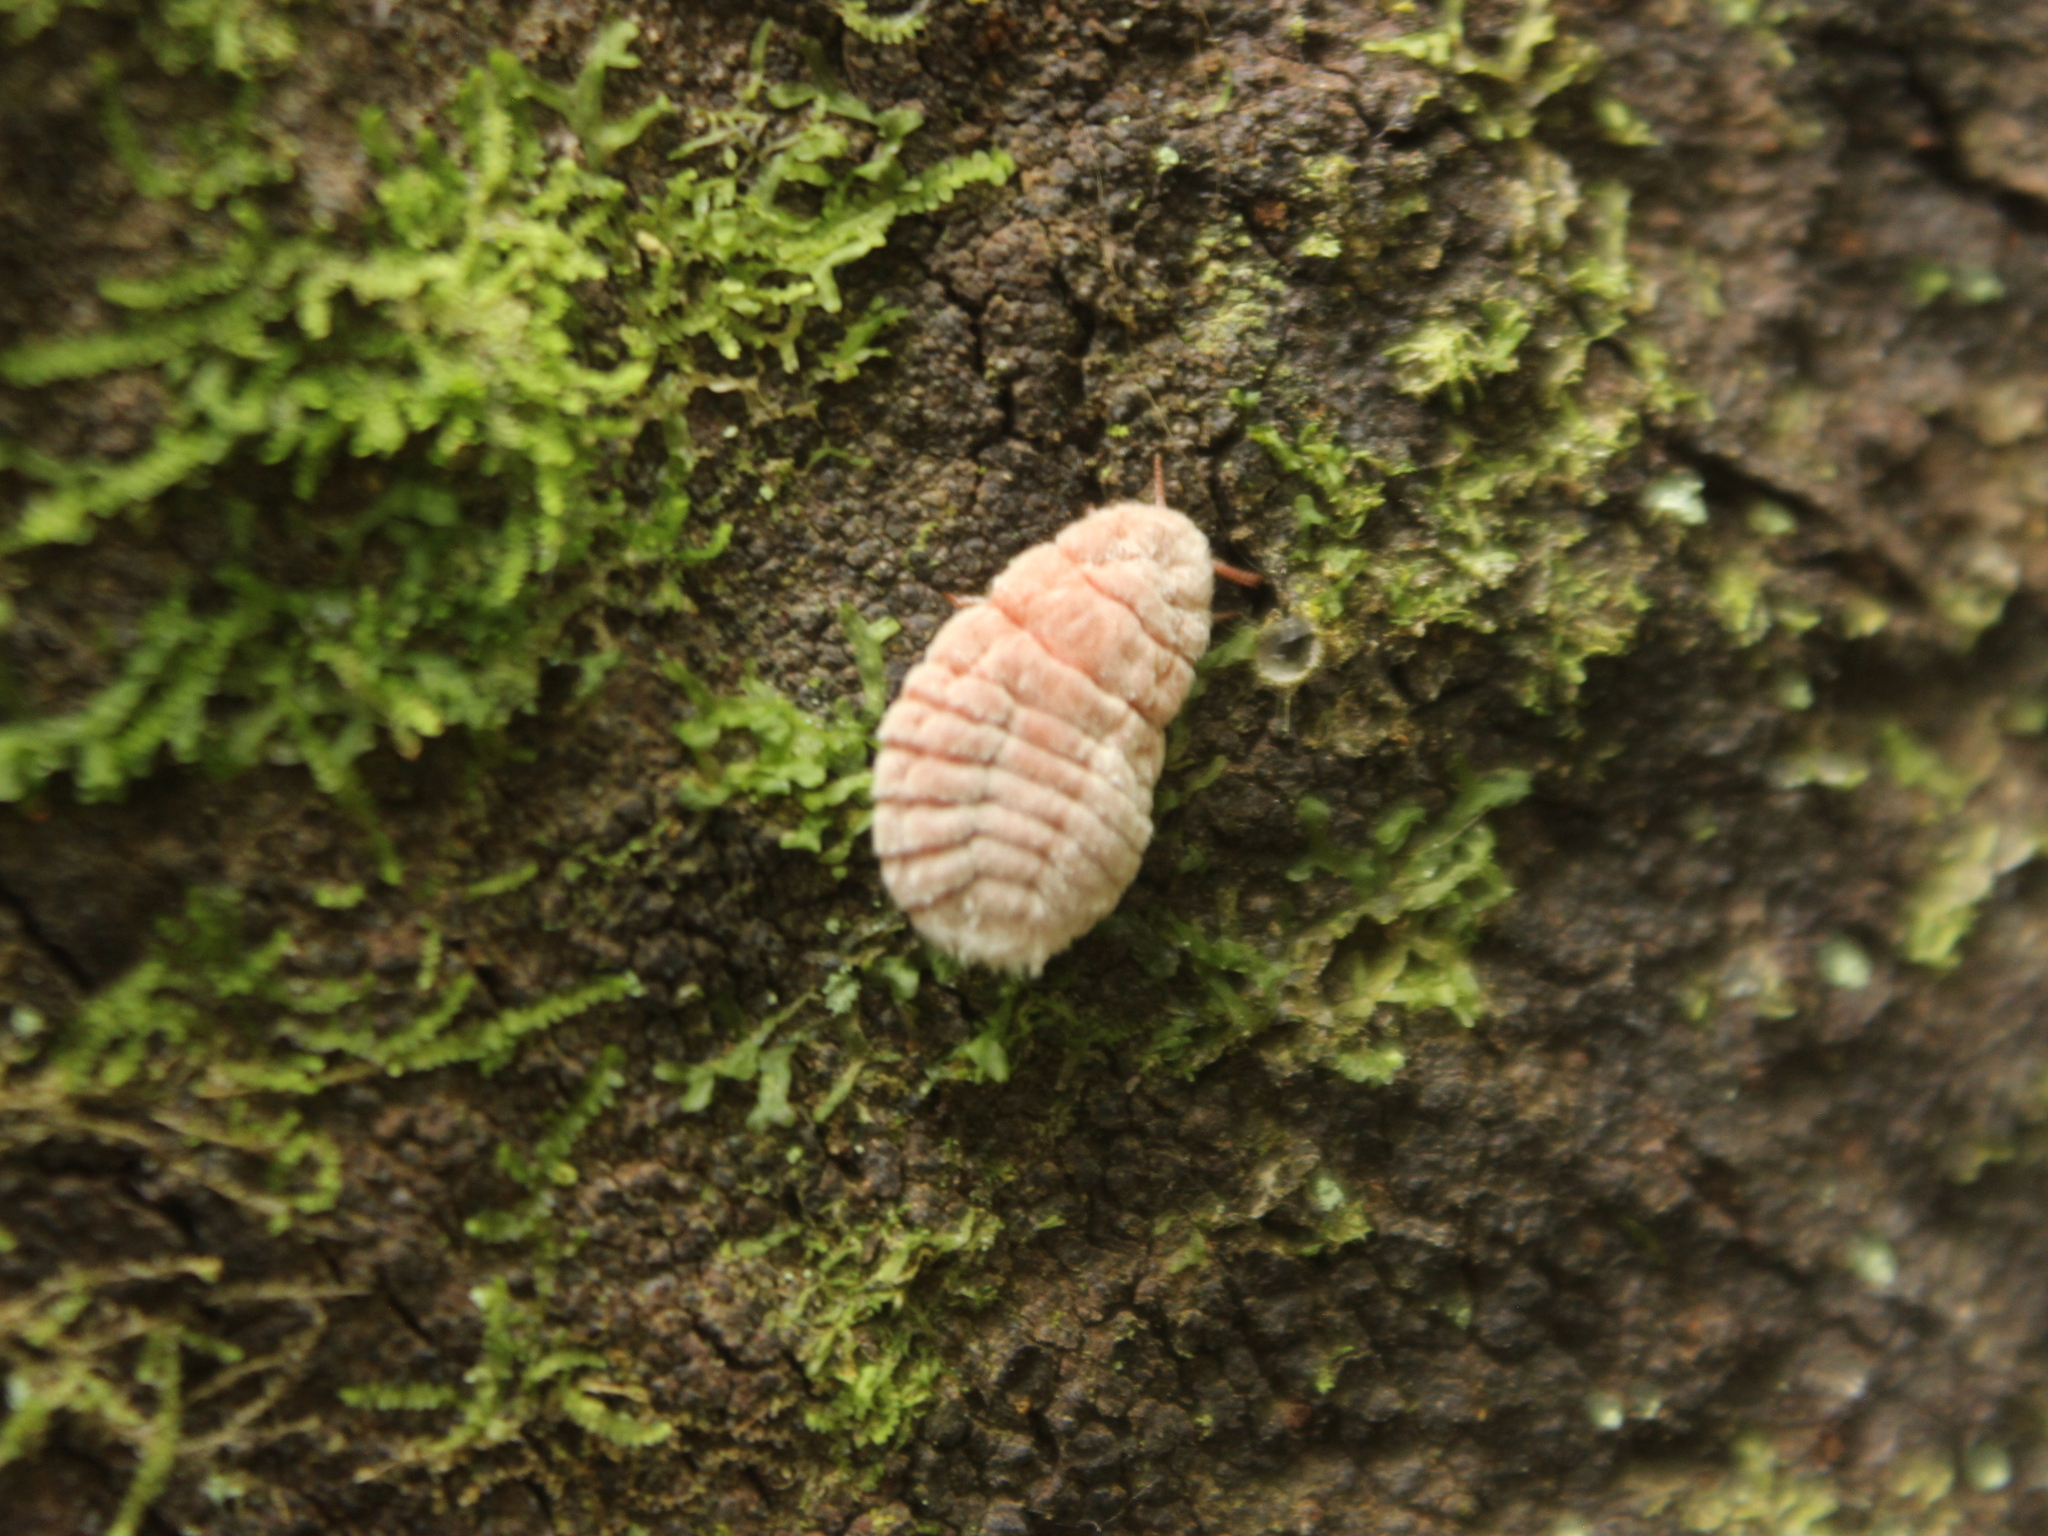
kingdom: Animalia
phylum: Arthropoda
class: Insecta
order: Hemiptera
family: Margarodidae
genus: Coelostomidia
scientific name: Coelostomidia zealandica
